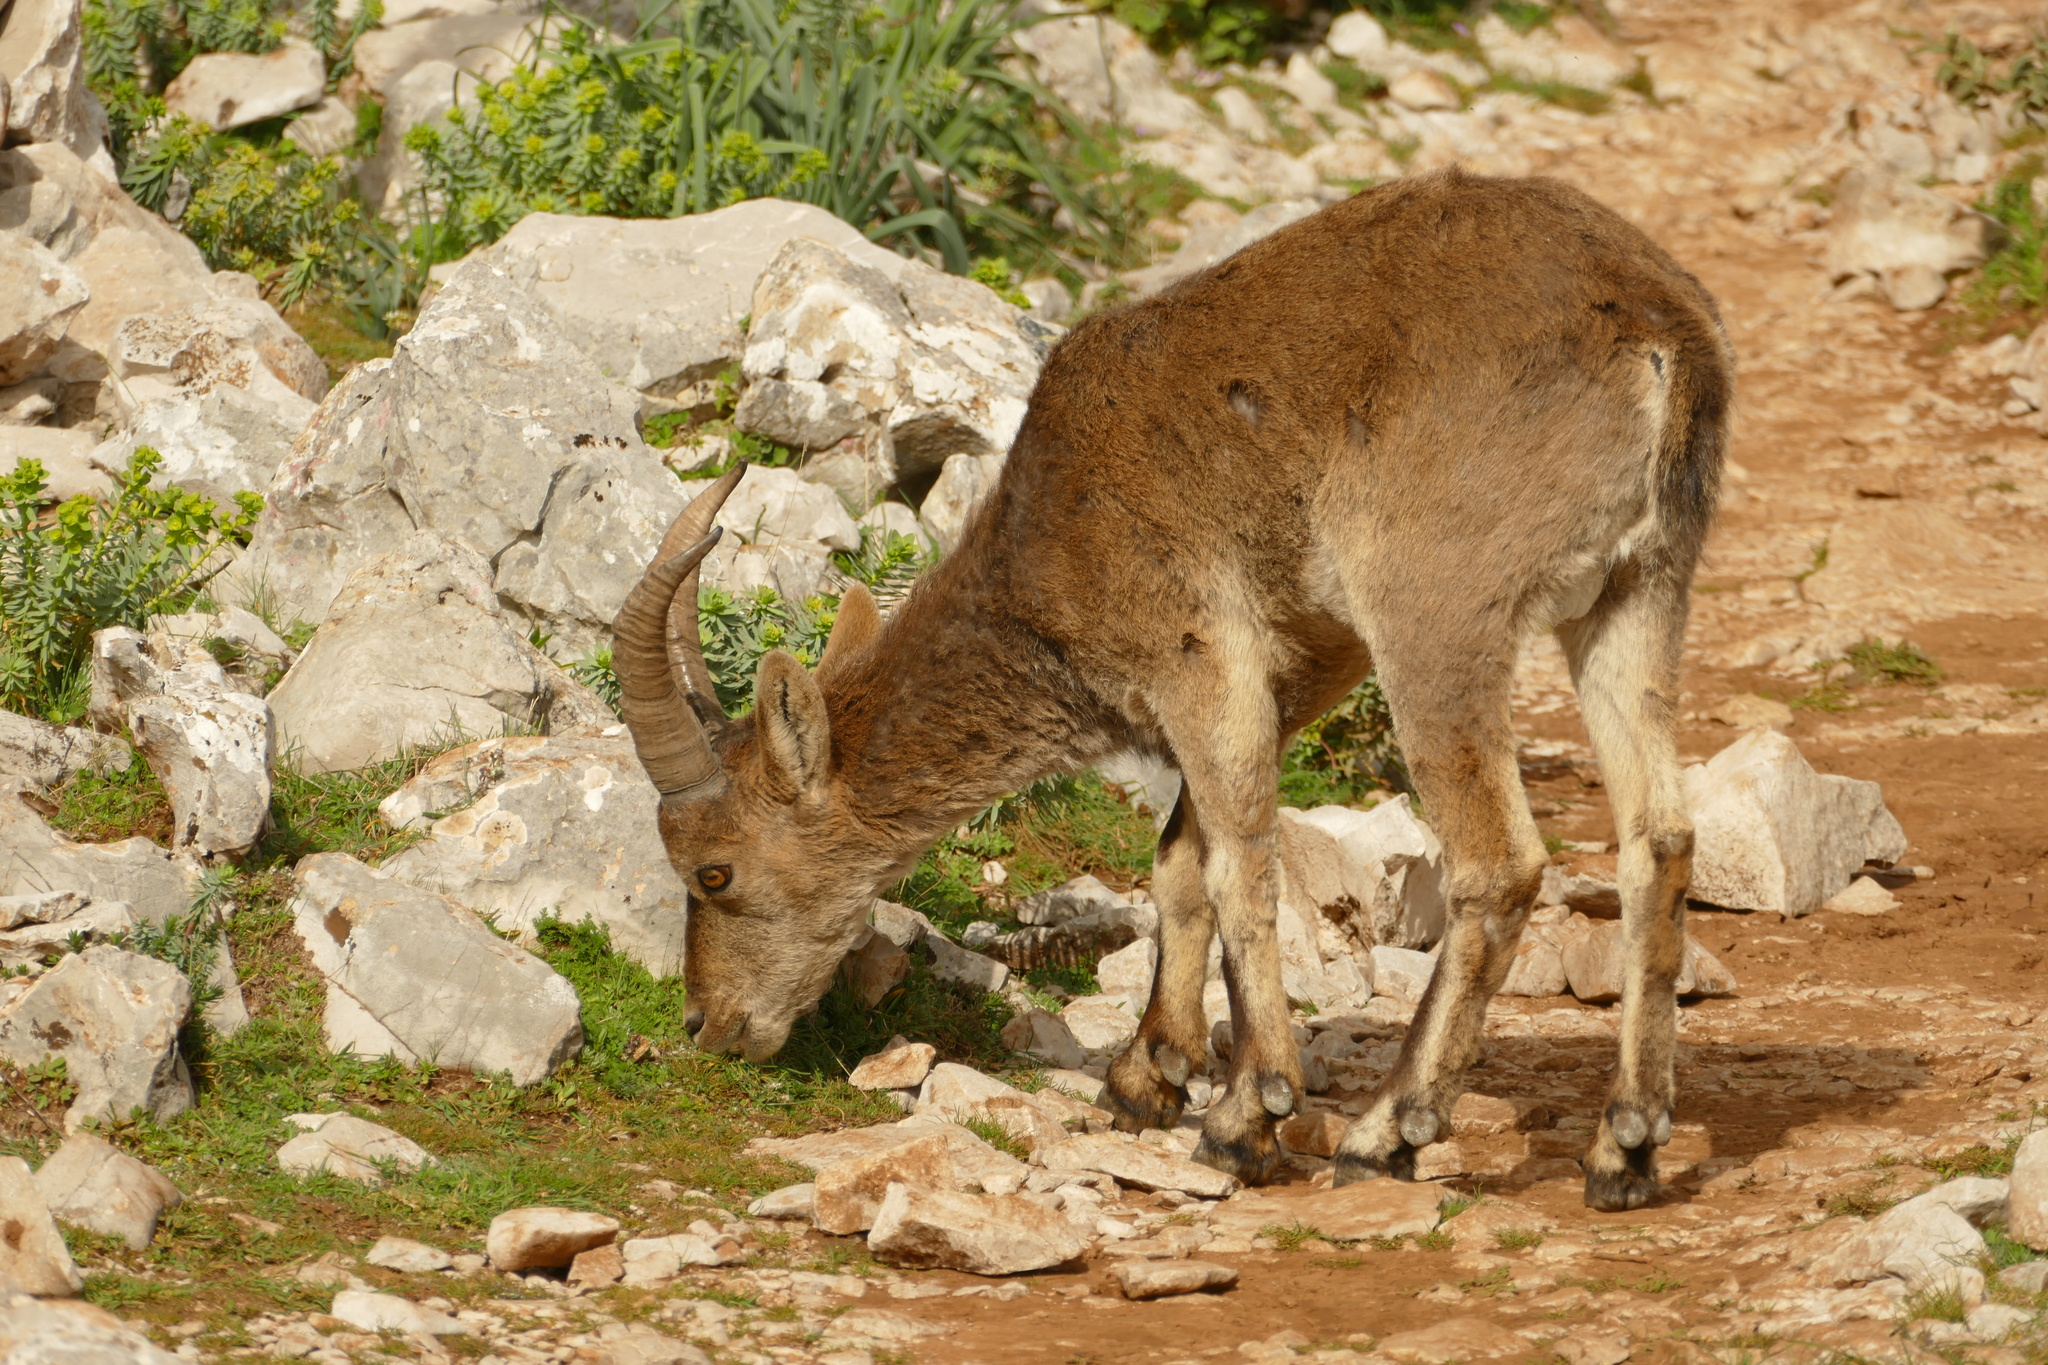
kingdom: Animalia
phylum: Chordata
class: Mammalia
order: Artiodactyla
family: Bovidae
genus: Capra
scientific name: Capra pyrenaica
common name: Spanish ibex
